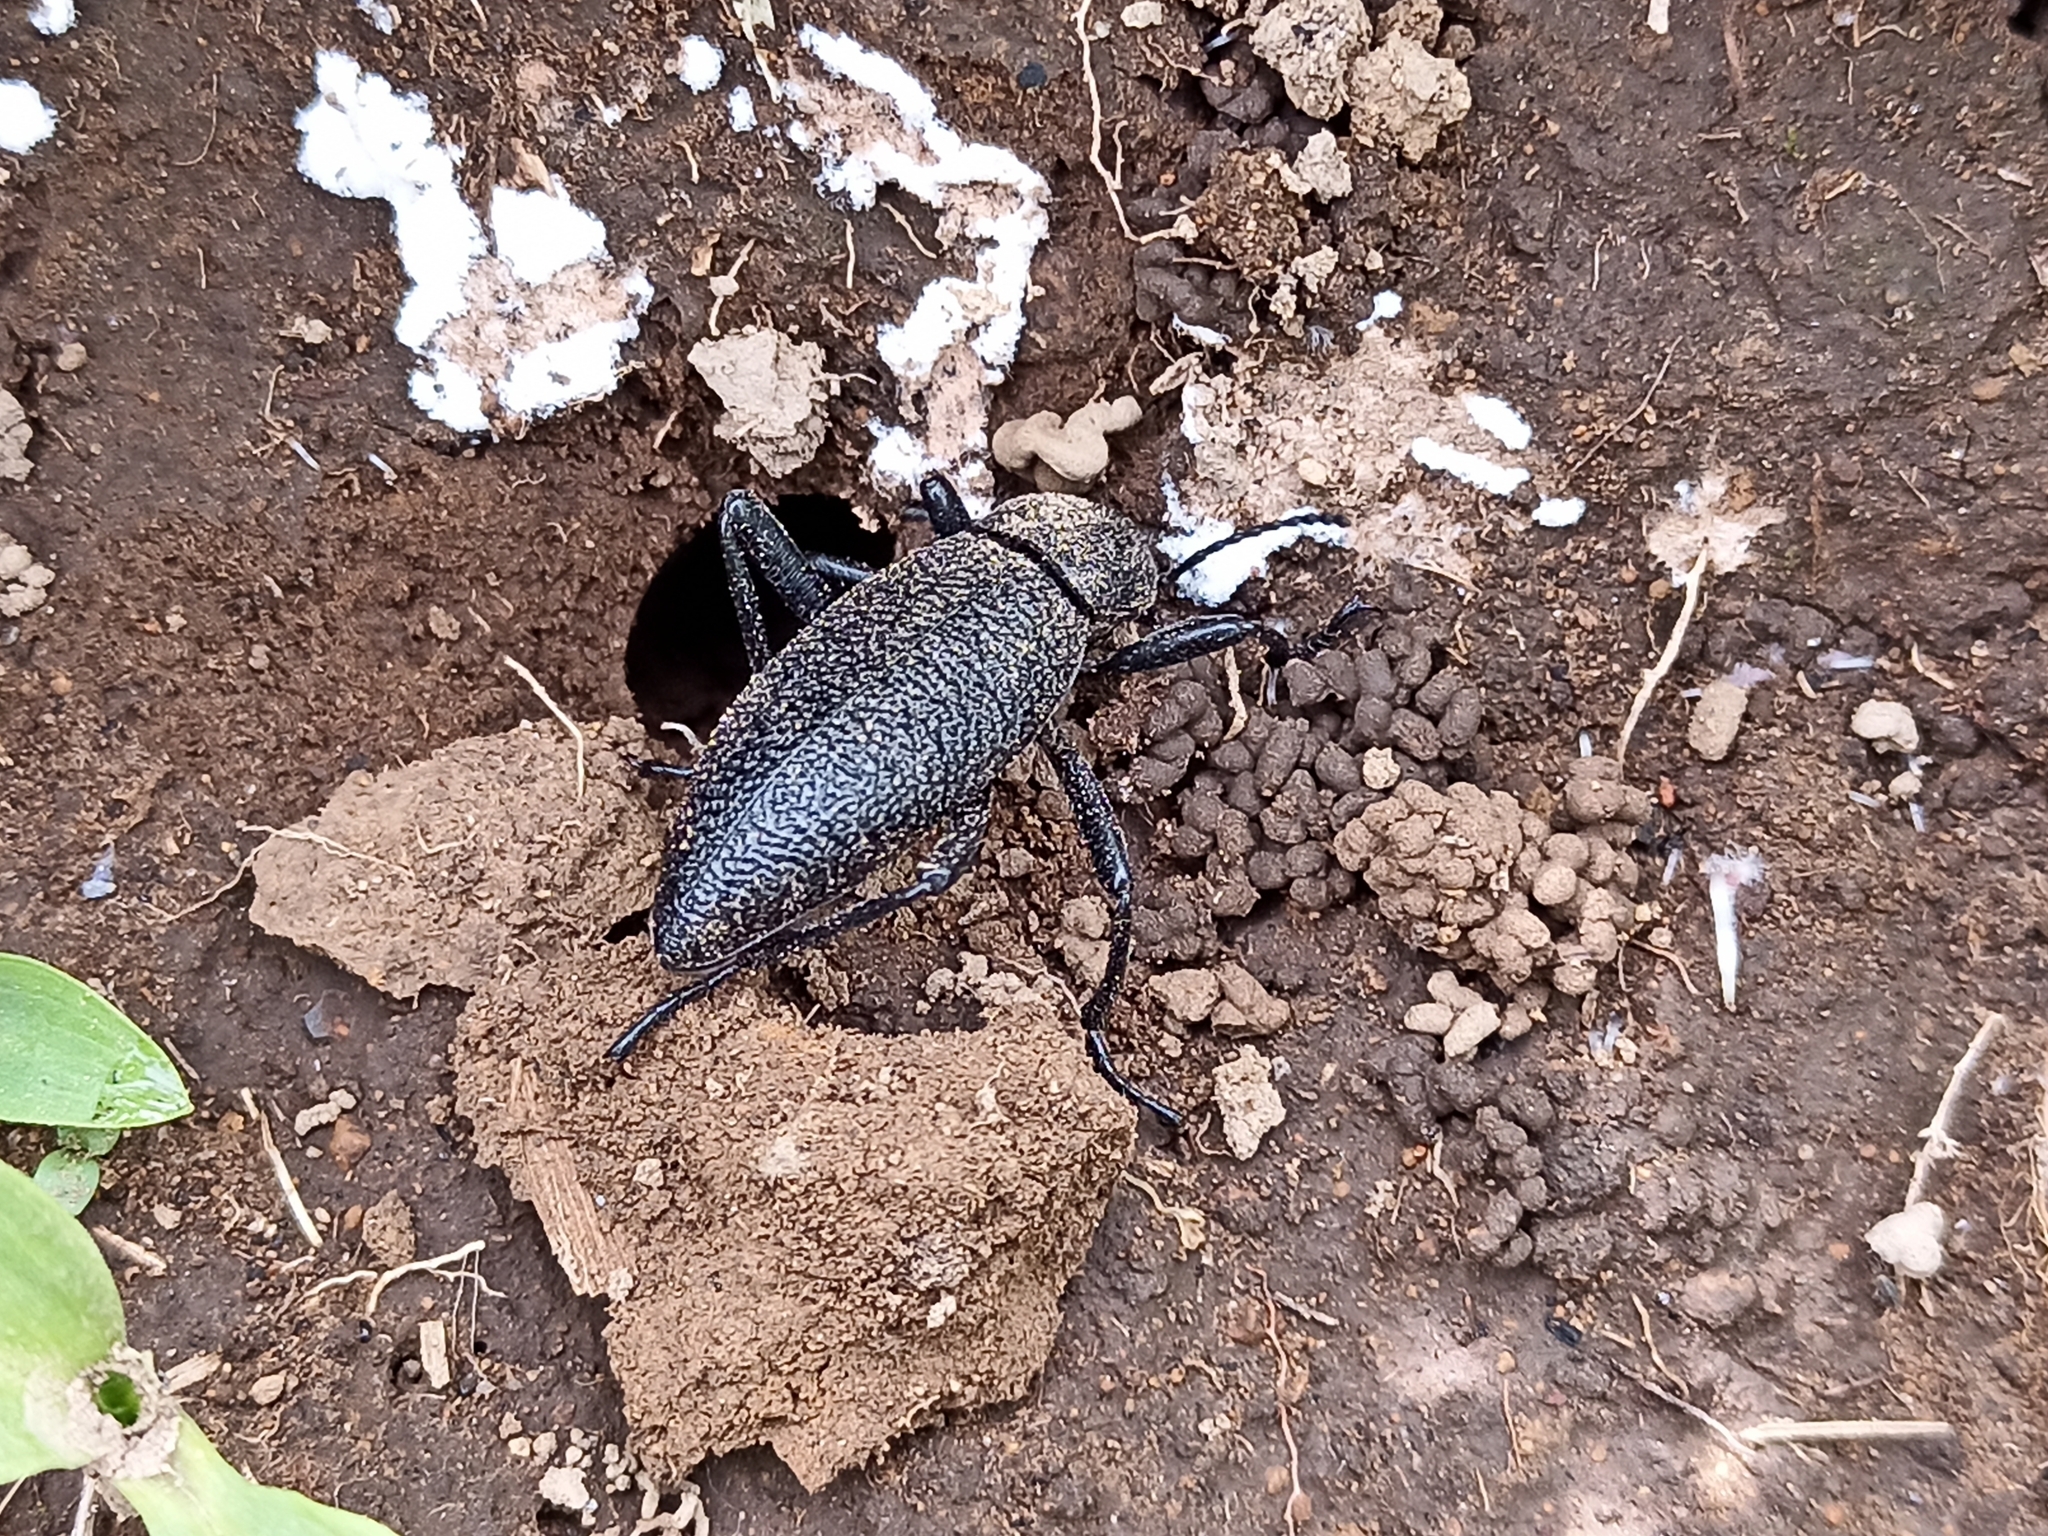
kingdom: Animalia
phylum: Arthropoda
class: Insecta
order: Coleoptera
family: Tenebrionidae
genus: Eleodes
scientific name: Eleodes ruida
